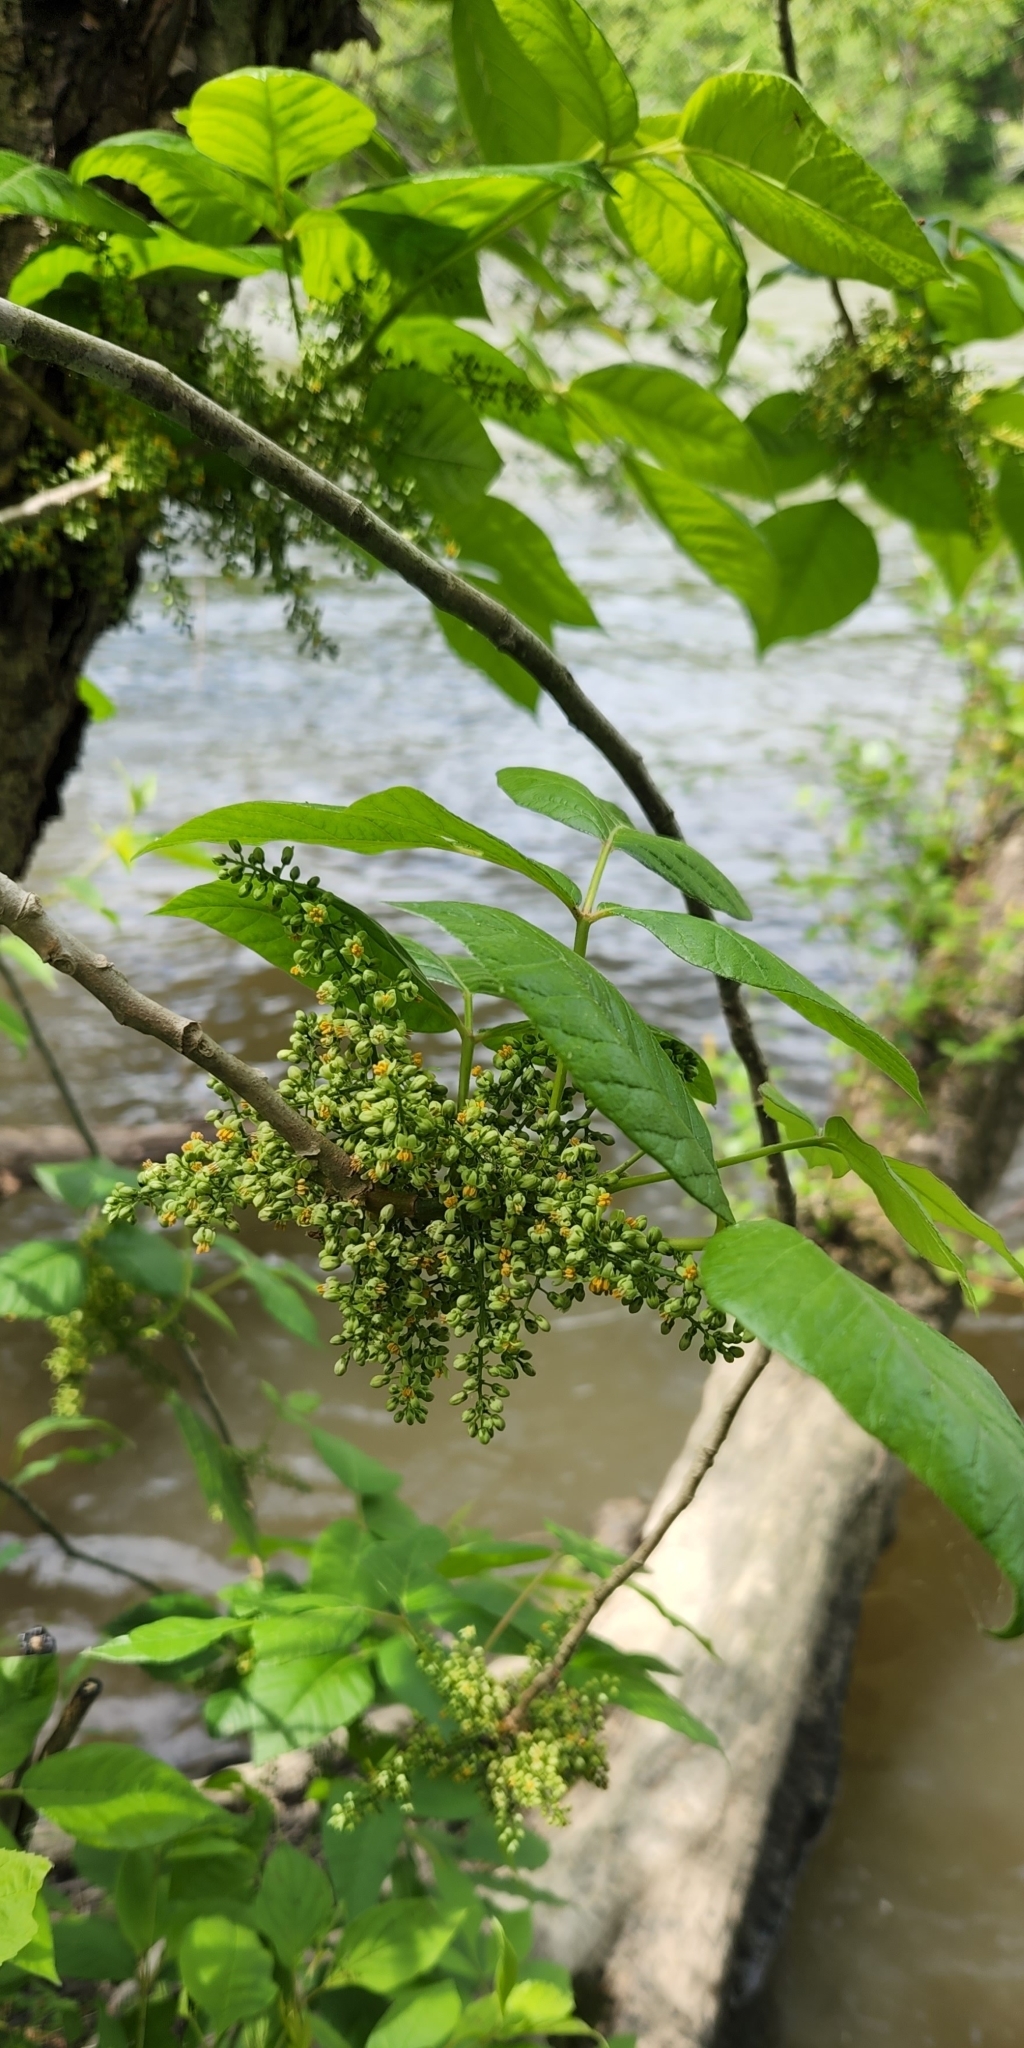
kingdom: Plantae
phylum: Tracheophyta
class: Magnoliopsida
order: Sapindales
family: Anacardiaceae
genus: Toxicodendron
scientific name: Toxicodendron radicans
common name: Poison ivy
